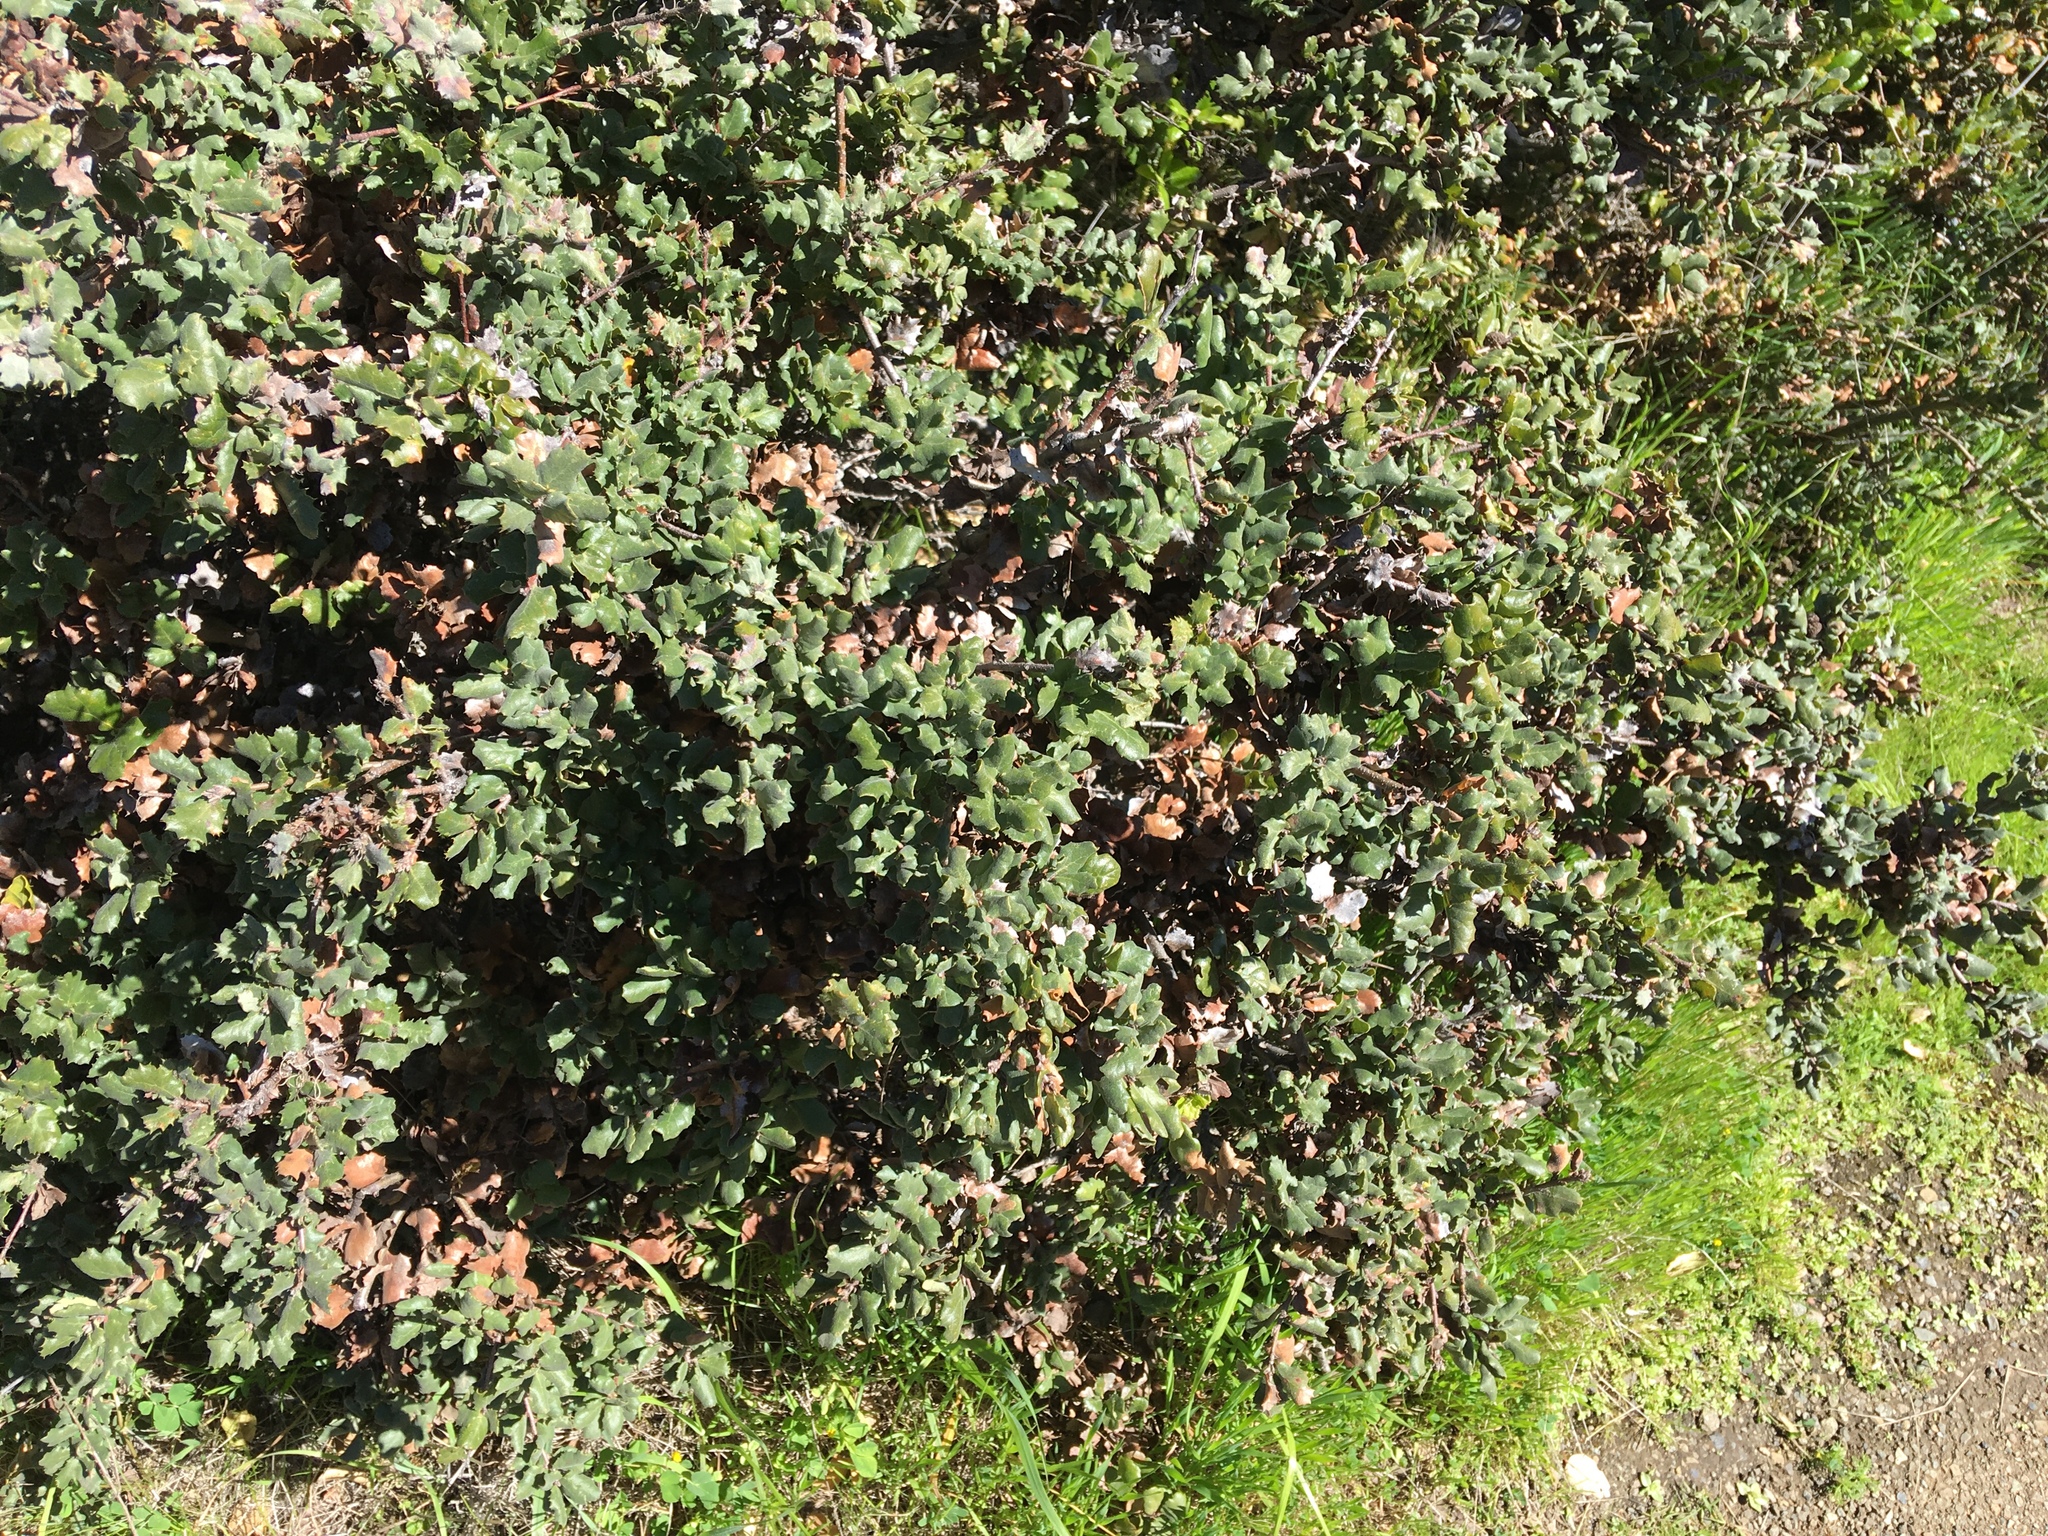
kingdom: Plantae
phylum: Tracheophyta
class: Magnoliopsida
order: Fagales
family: Fagaceae
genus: Quercus
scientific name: Quercus durata
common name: Leather oak
